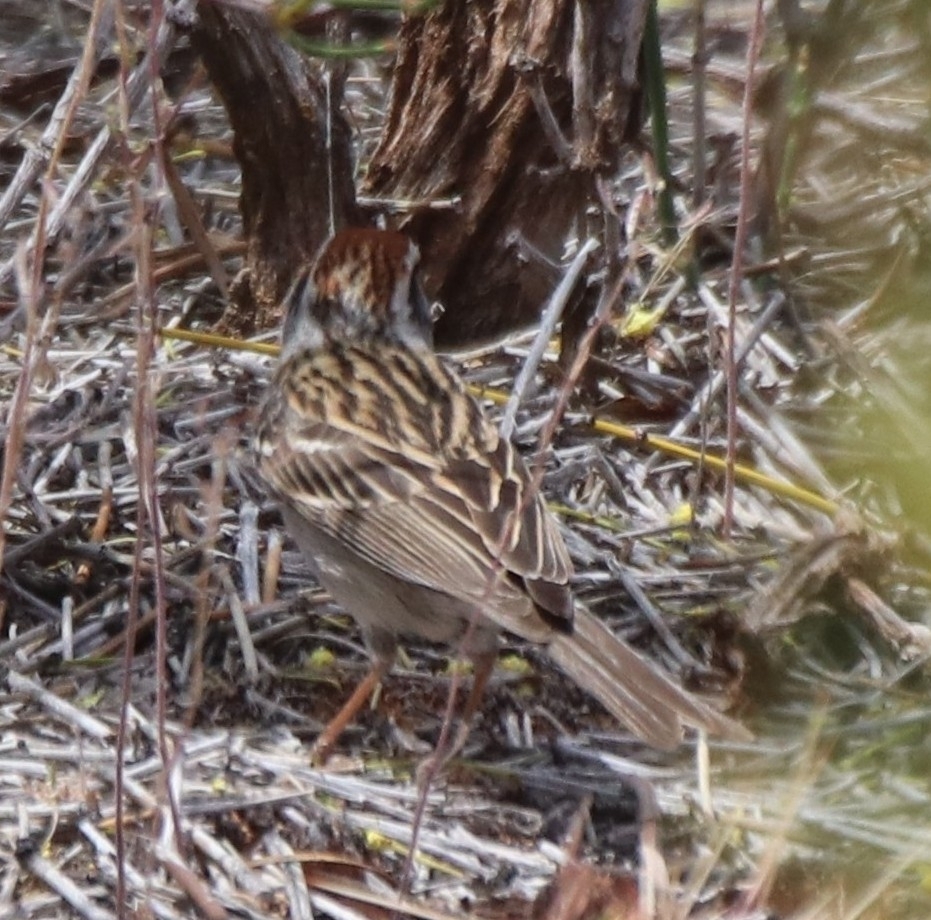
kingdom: Animalia
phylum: Chordata
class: Aves
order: Passeriformes
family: Passerellidae
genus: Spizella
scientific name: Spizella passerina
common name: Chipping sparrow
